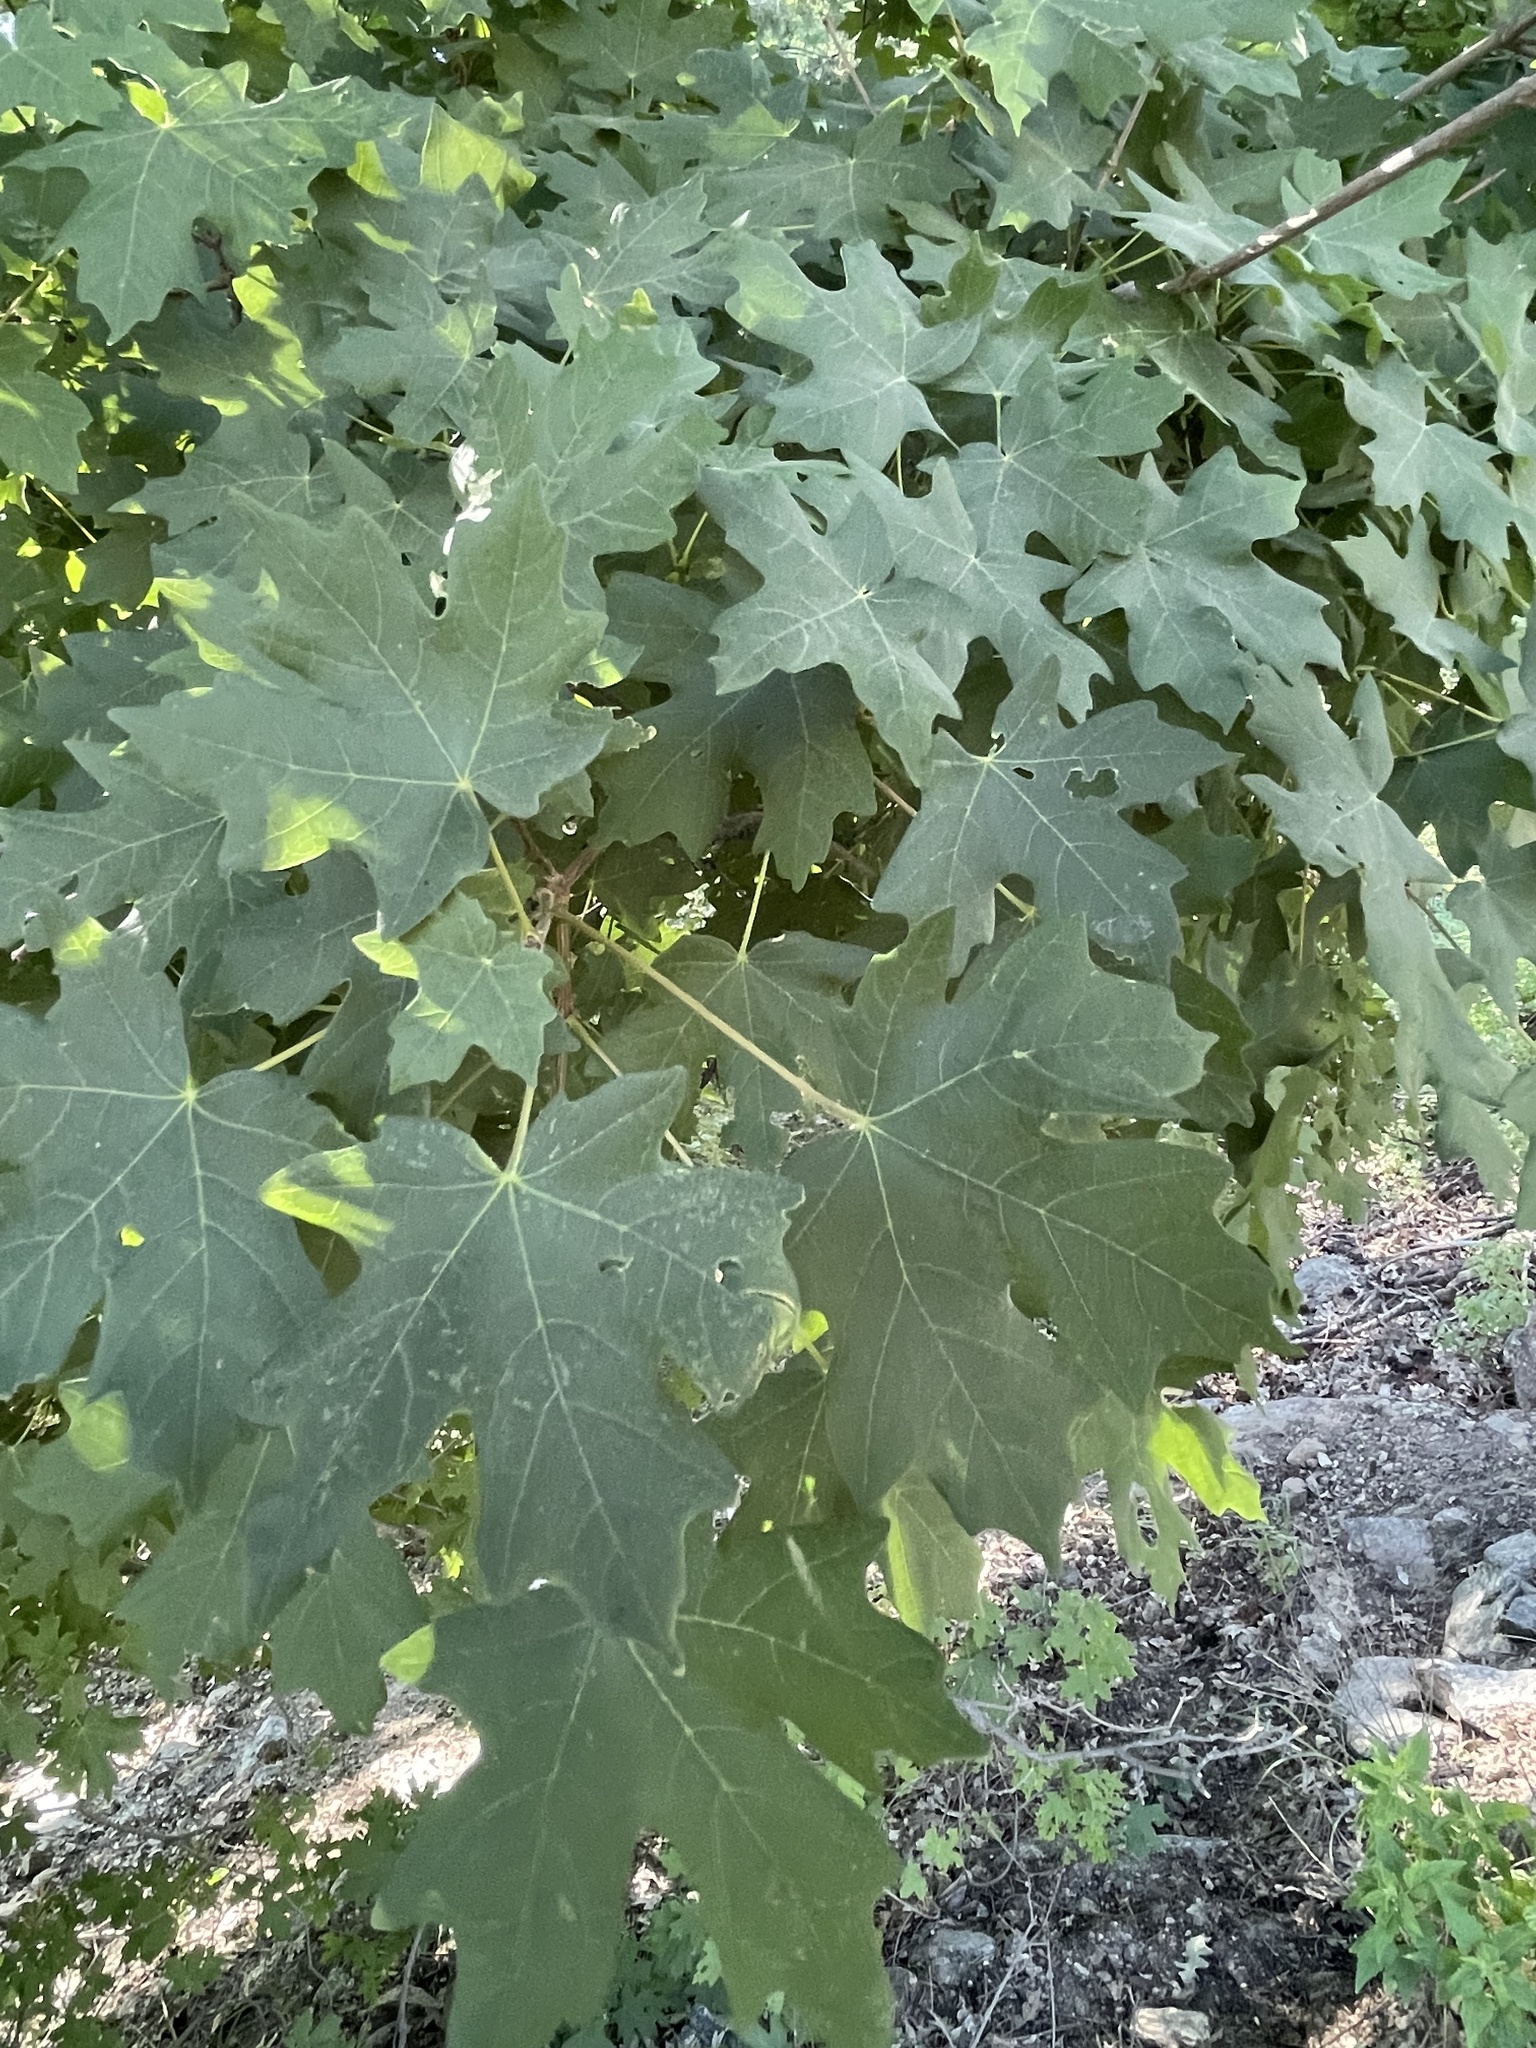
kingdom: Plantae
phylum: Tracheophyta
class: Magnoliopsida
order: Sapindales
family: Sapindaceae
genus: Acer
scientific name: Acer grandidentatum
